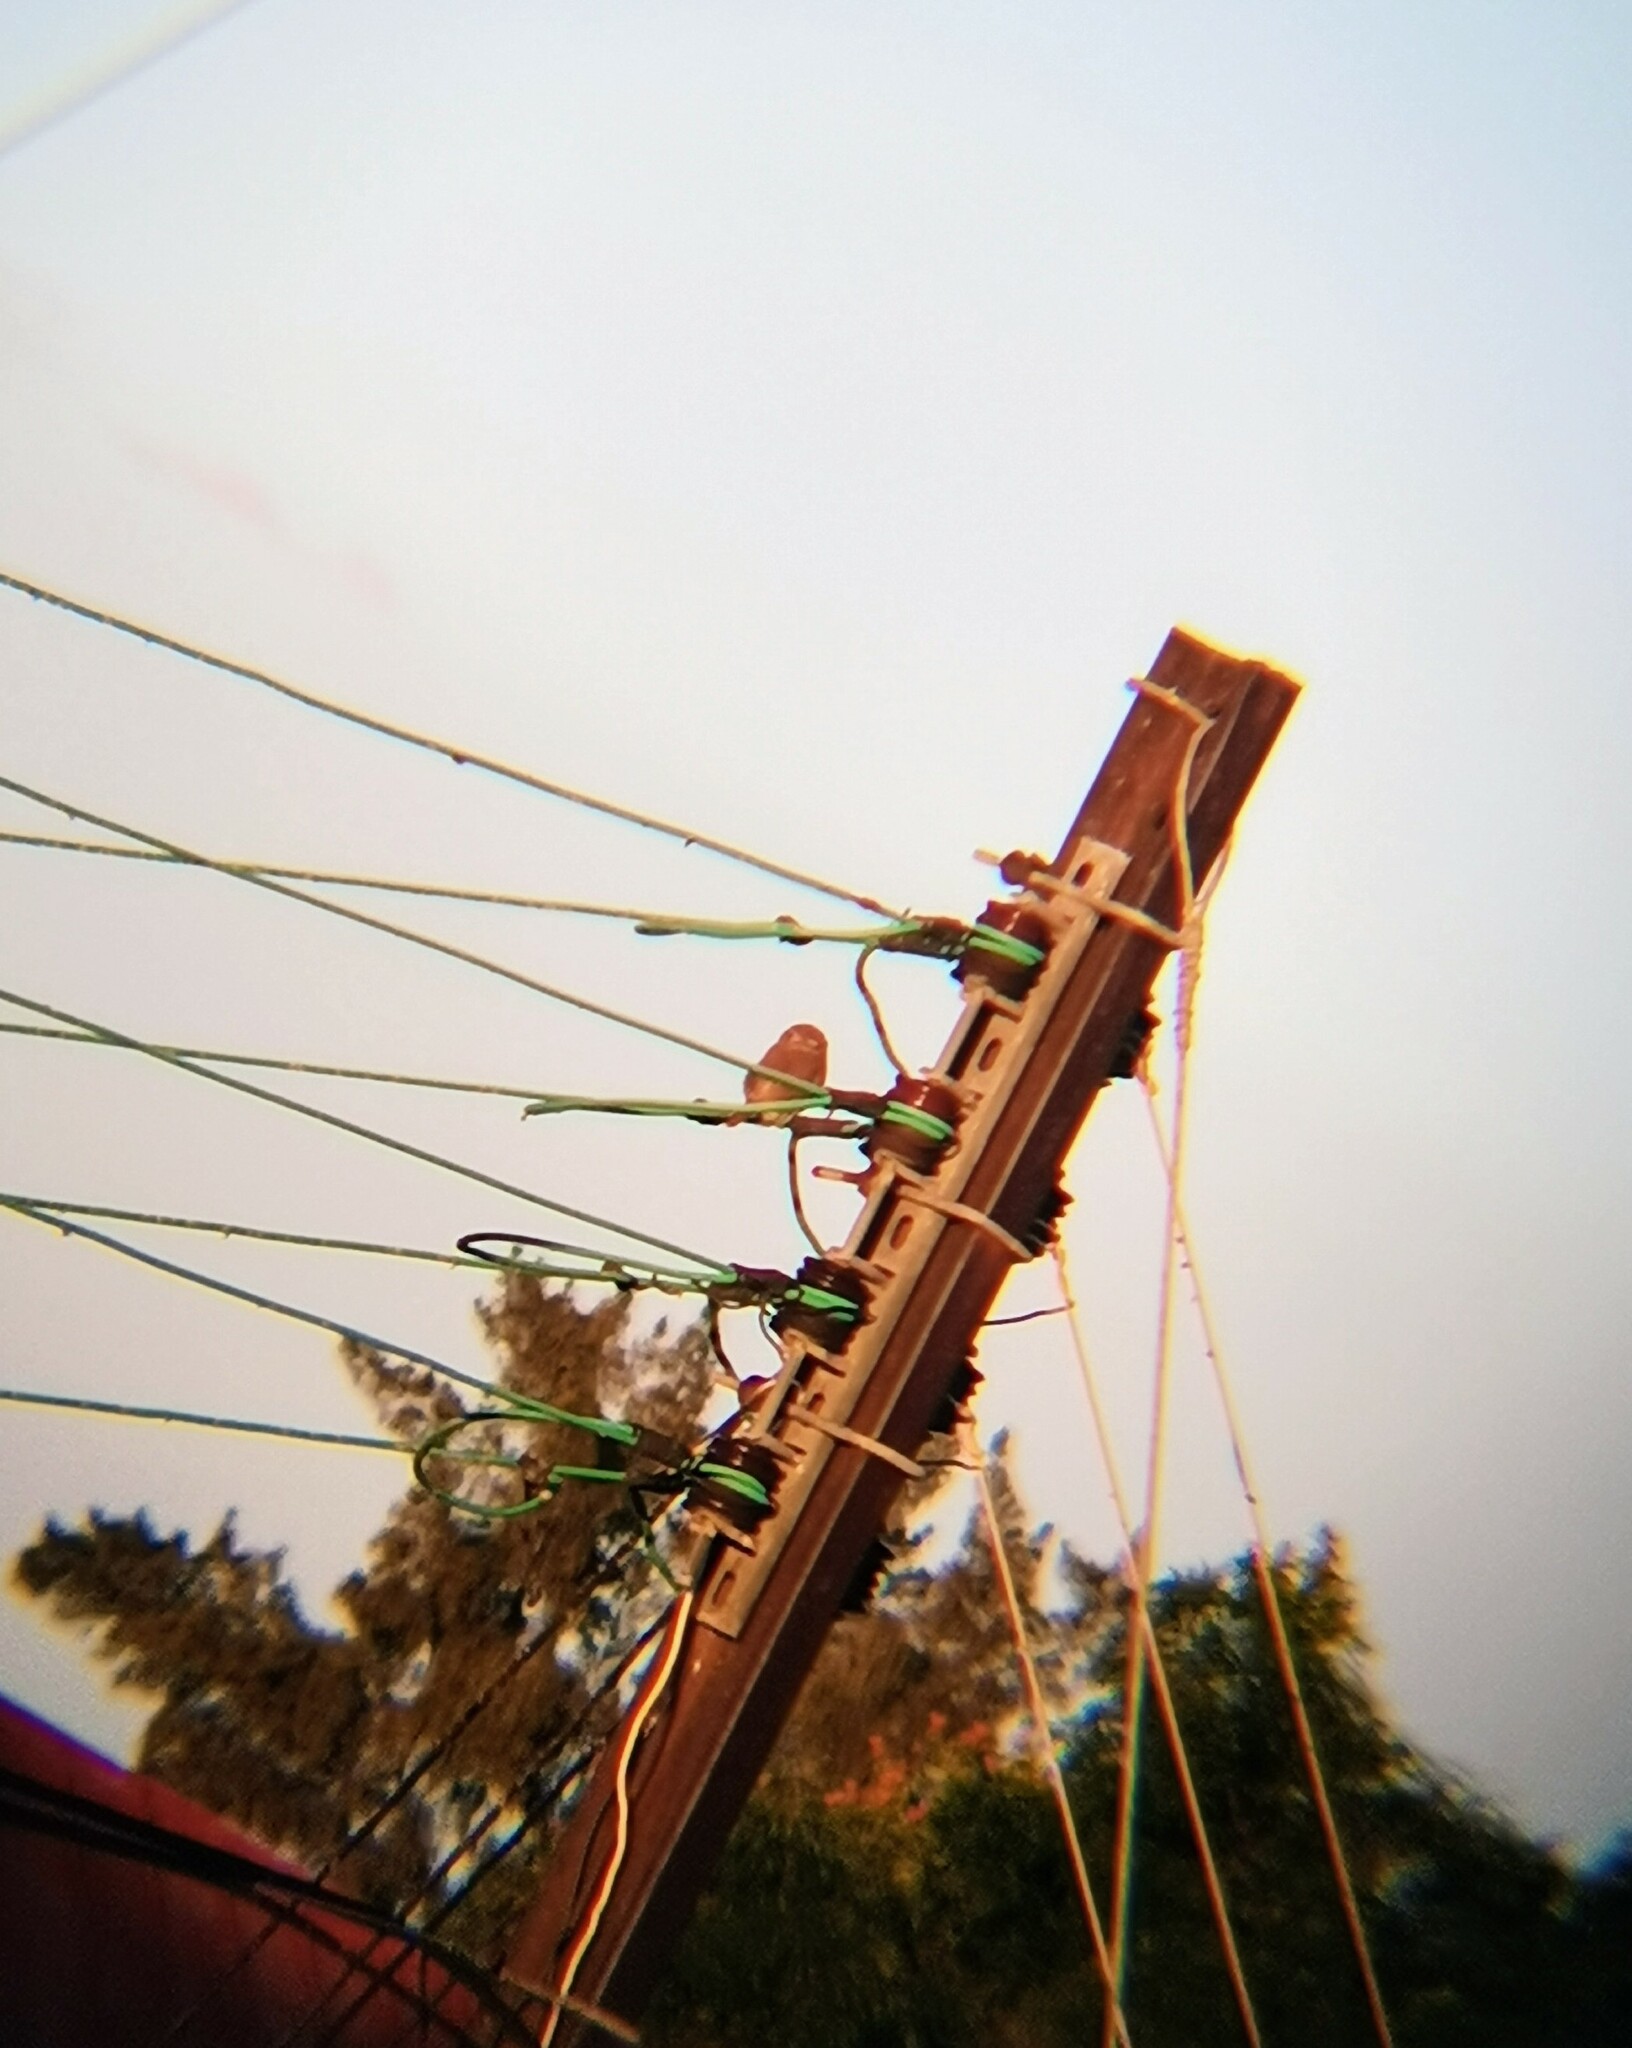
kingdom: Animalia
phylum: Chordata
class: Aves
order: Strigiformes
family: Strigidae
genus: Glaucidium
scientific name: Glaucidium brasilianum
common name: Ferruginous pygmy-owl
